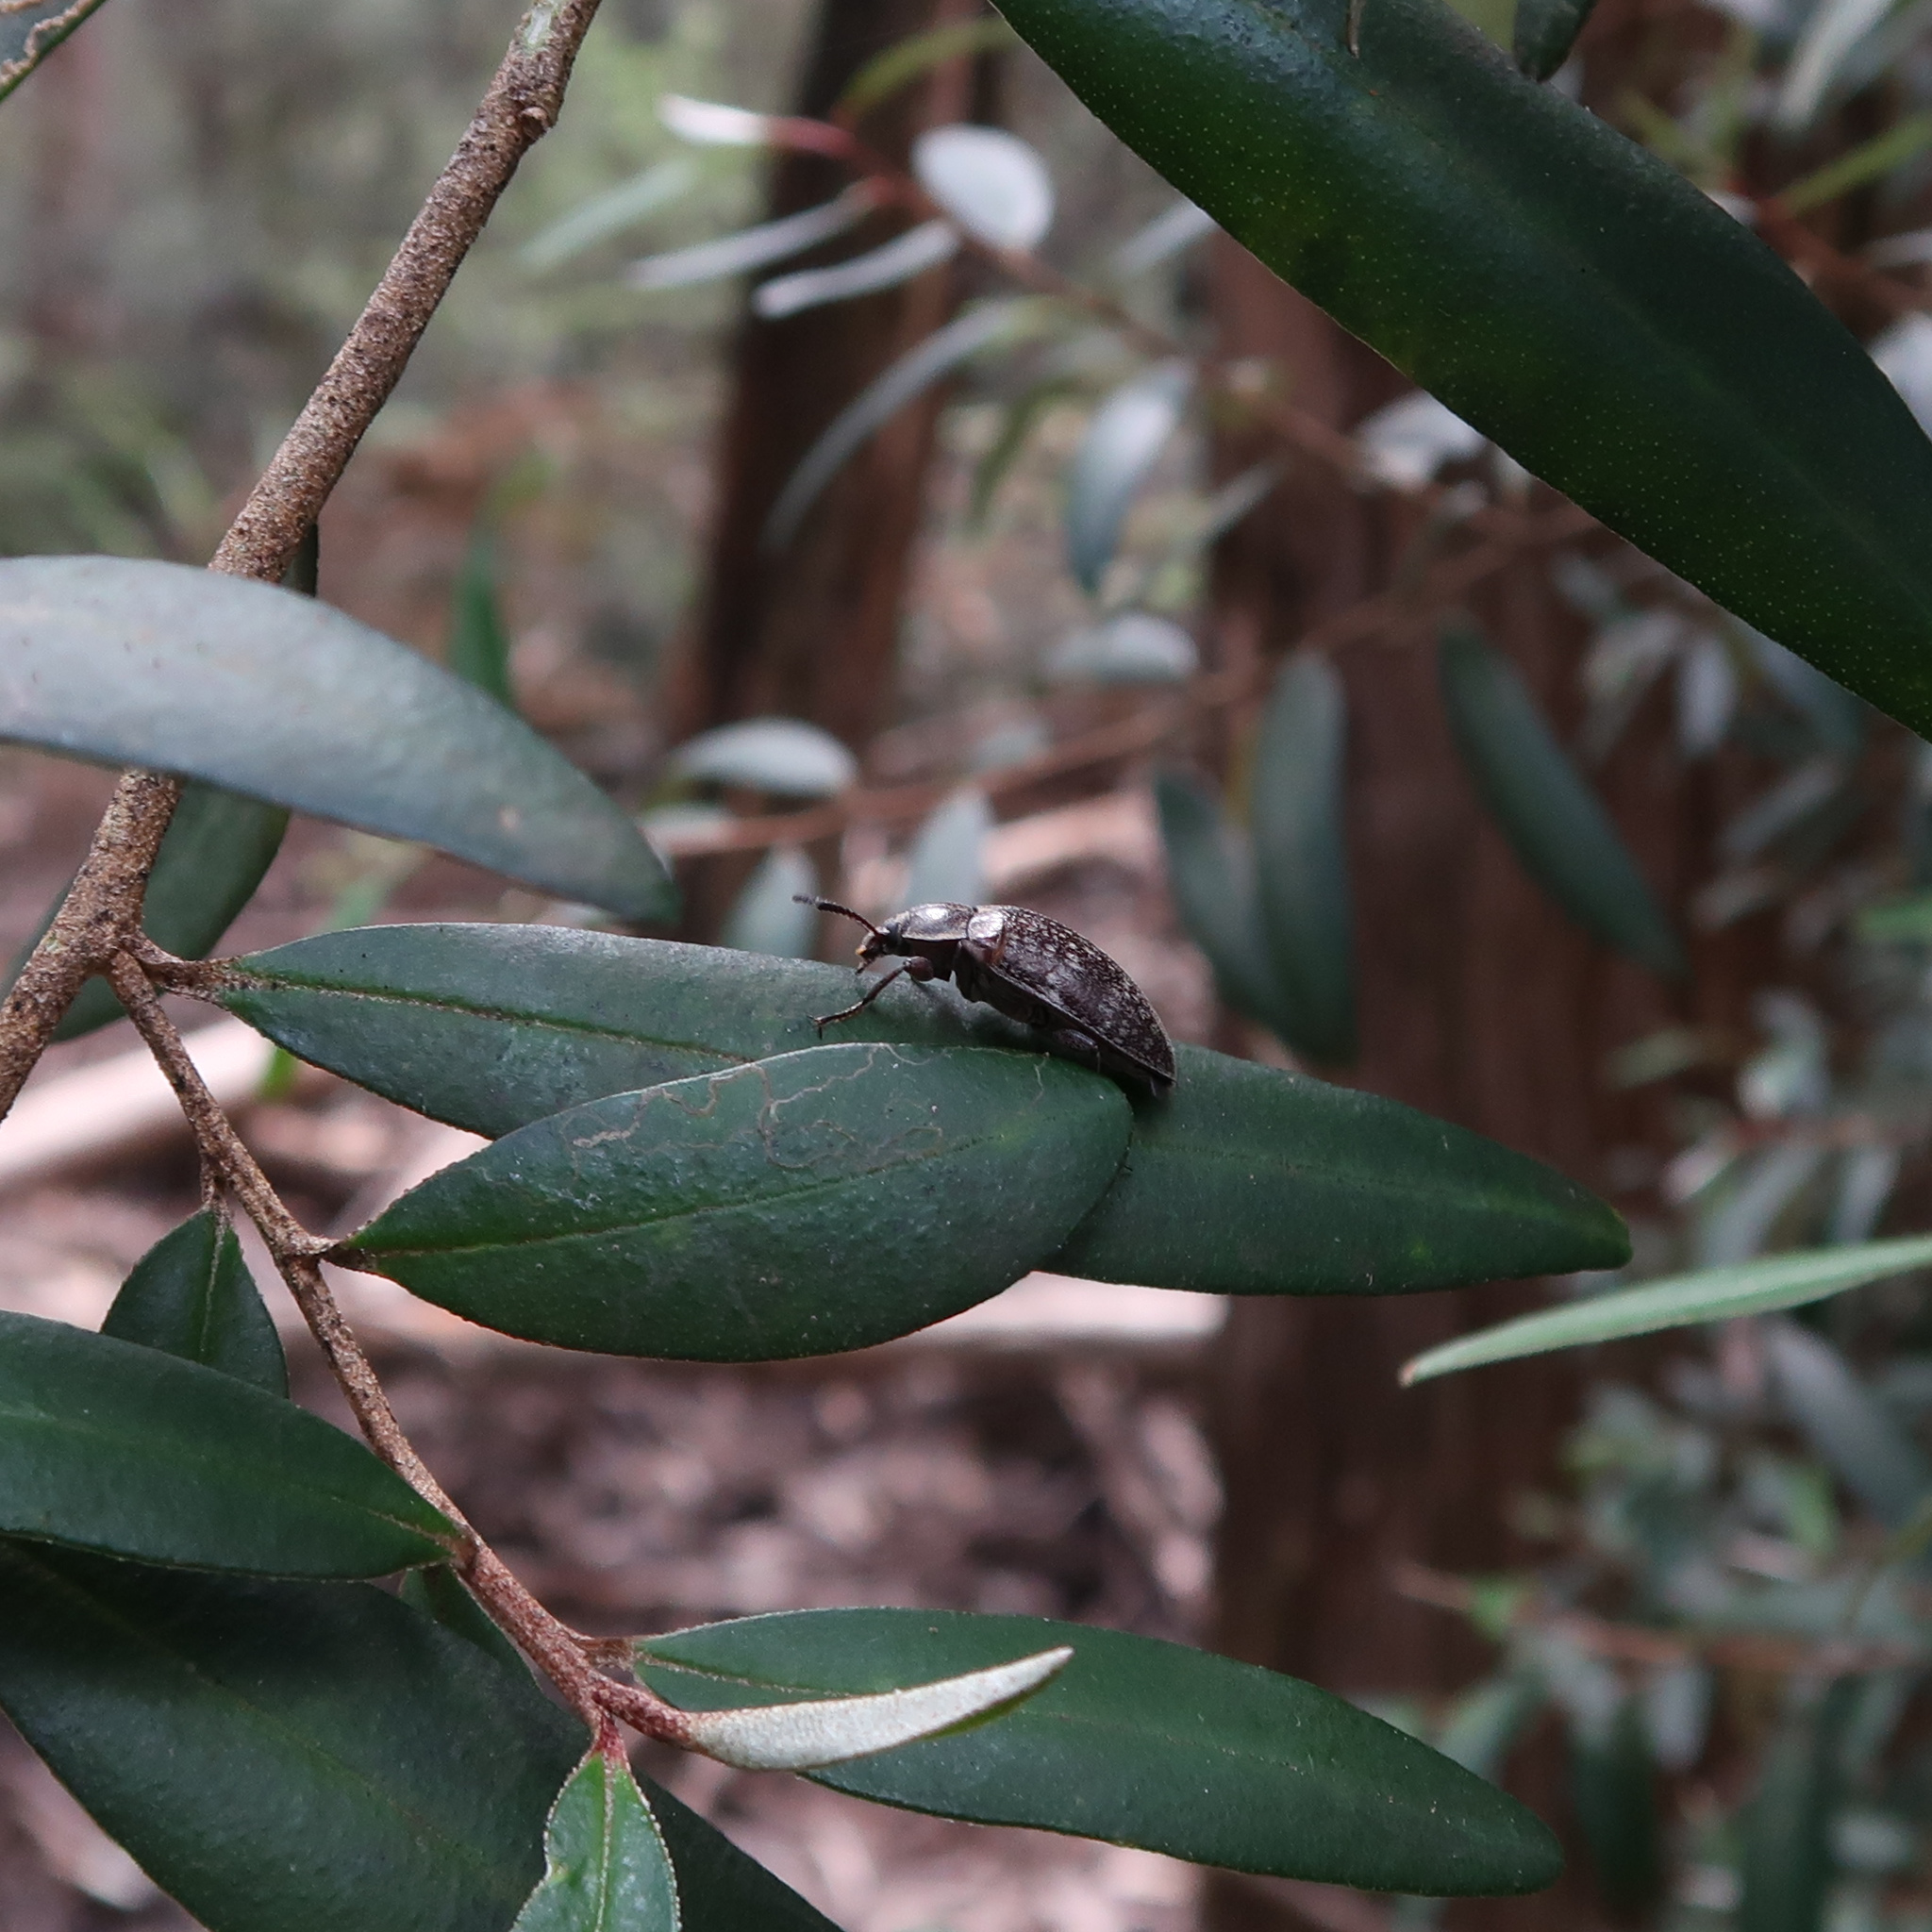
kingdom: Animalia
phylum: Arthropoda
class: Insecta
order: Coleoptera
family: Tenebrionidae
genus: Pachycoelia
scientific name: Pachycoelia
